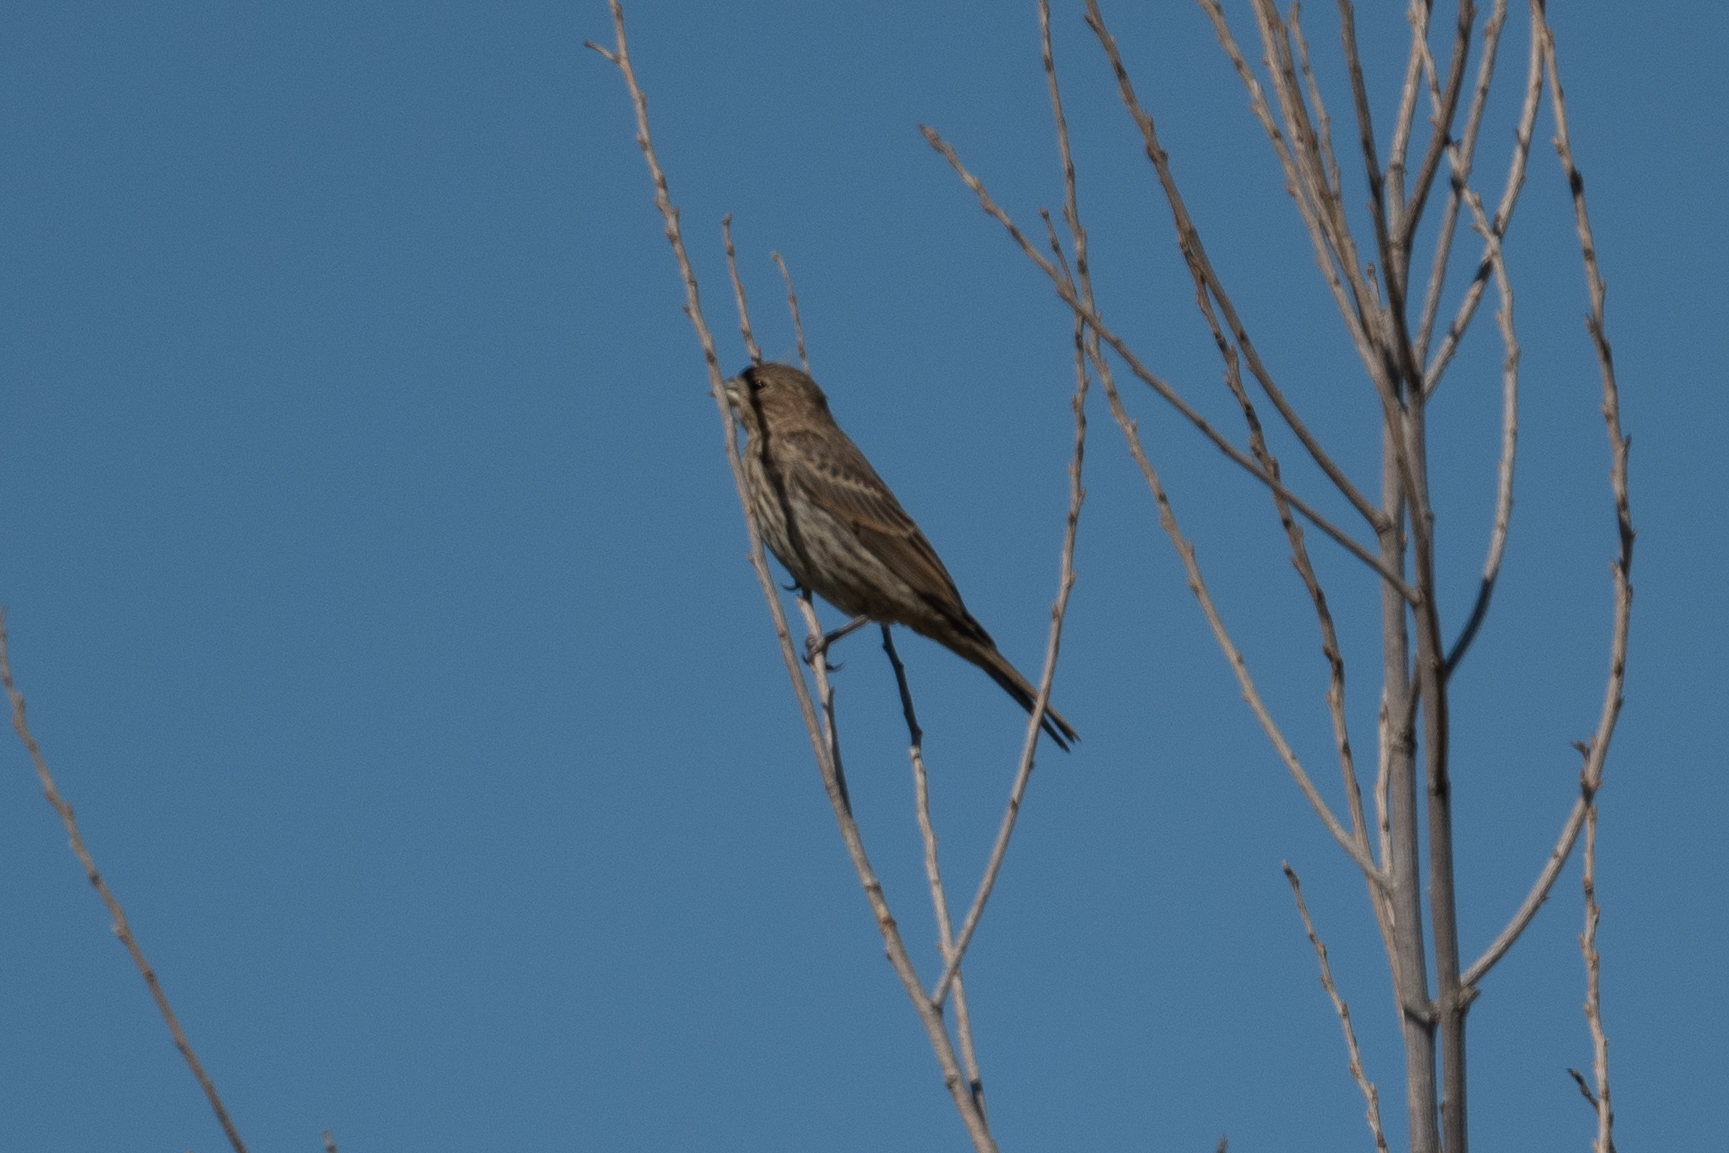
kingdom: Animalia
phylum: Chordata
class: Aves
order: Passeriformes
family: Fringillidae
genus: Haemorhous
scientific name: Haemorhous mexicanus
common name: House finch
